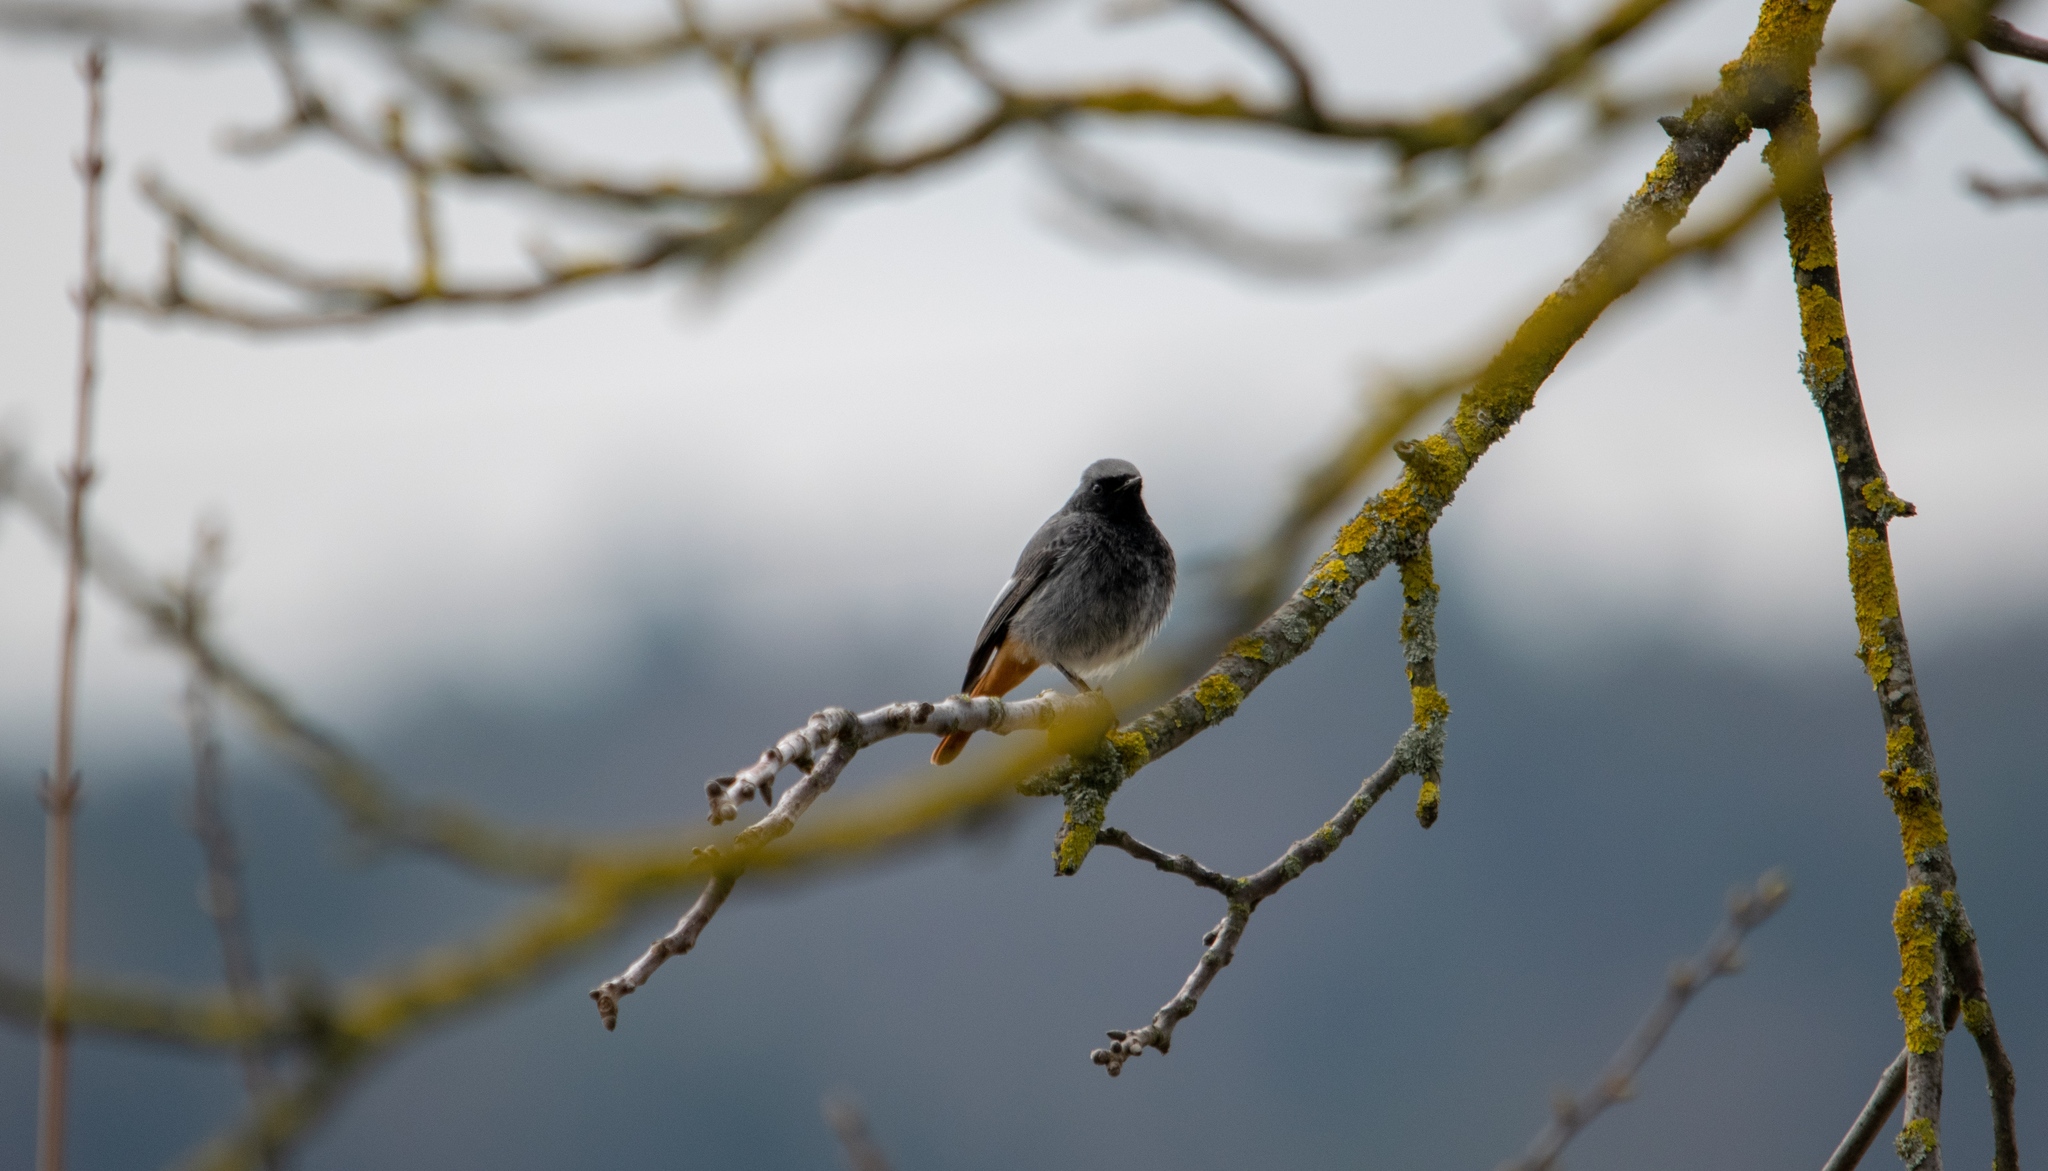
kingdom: Animalia
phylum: Chordata
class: Aves
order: Passeriformes
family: Muscicapidae
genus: Phoenicurus
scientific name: Phoenicurus ochruros
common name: Black redstart
